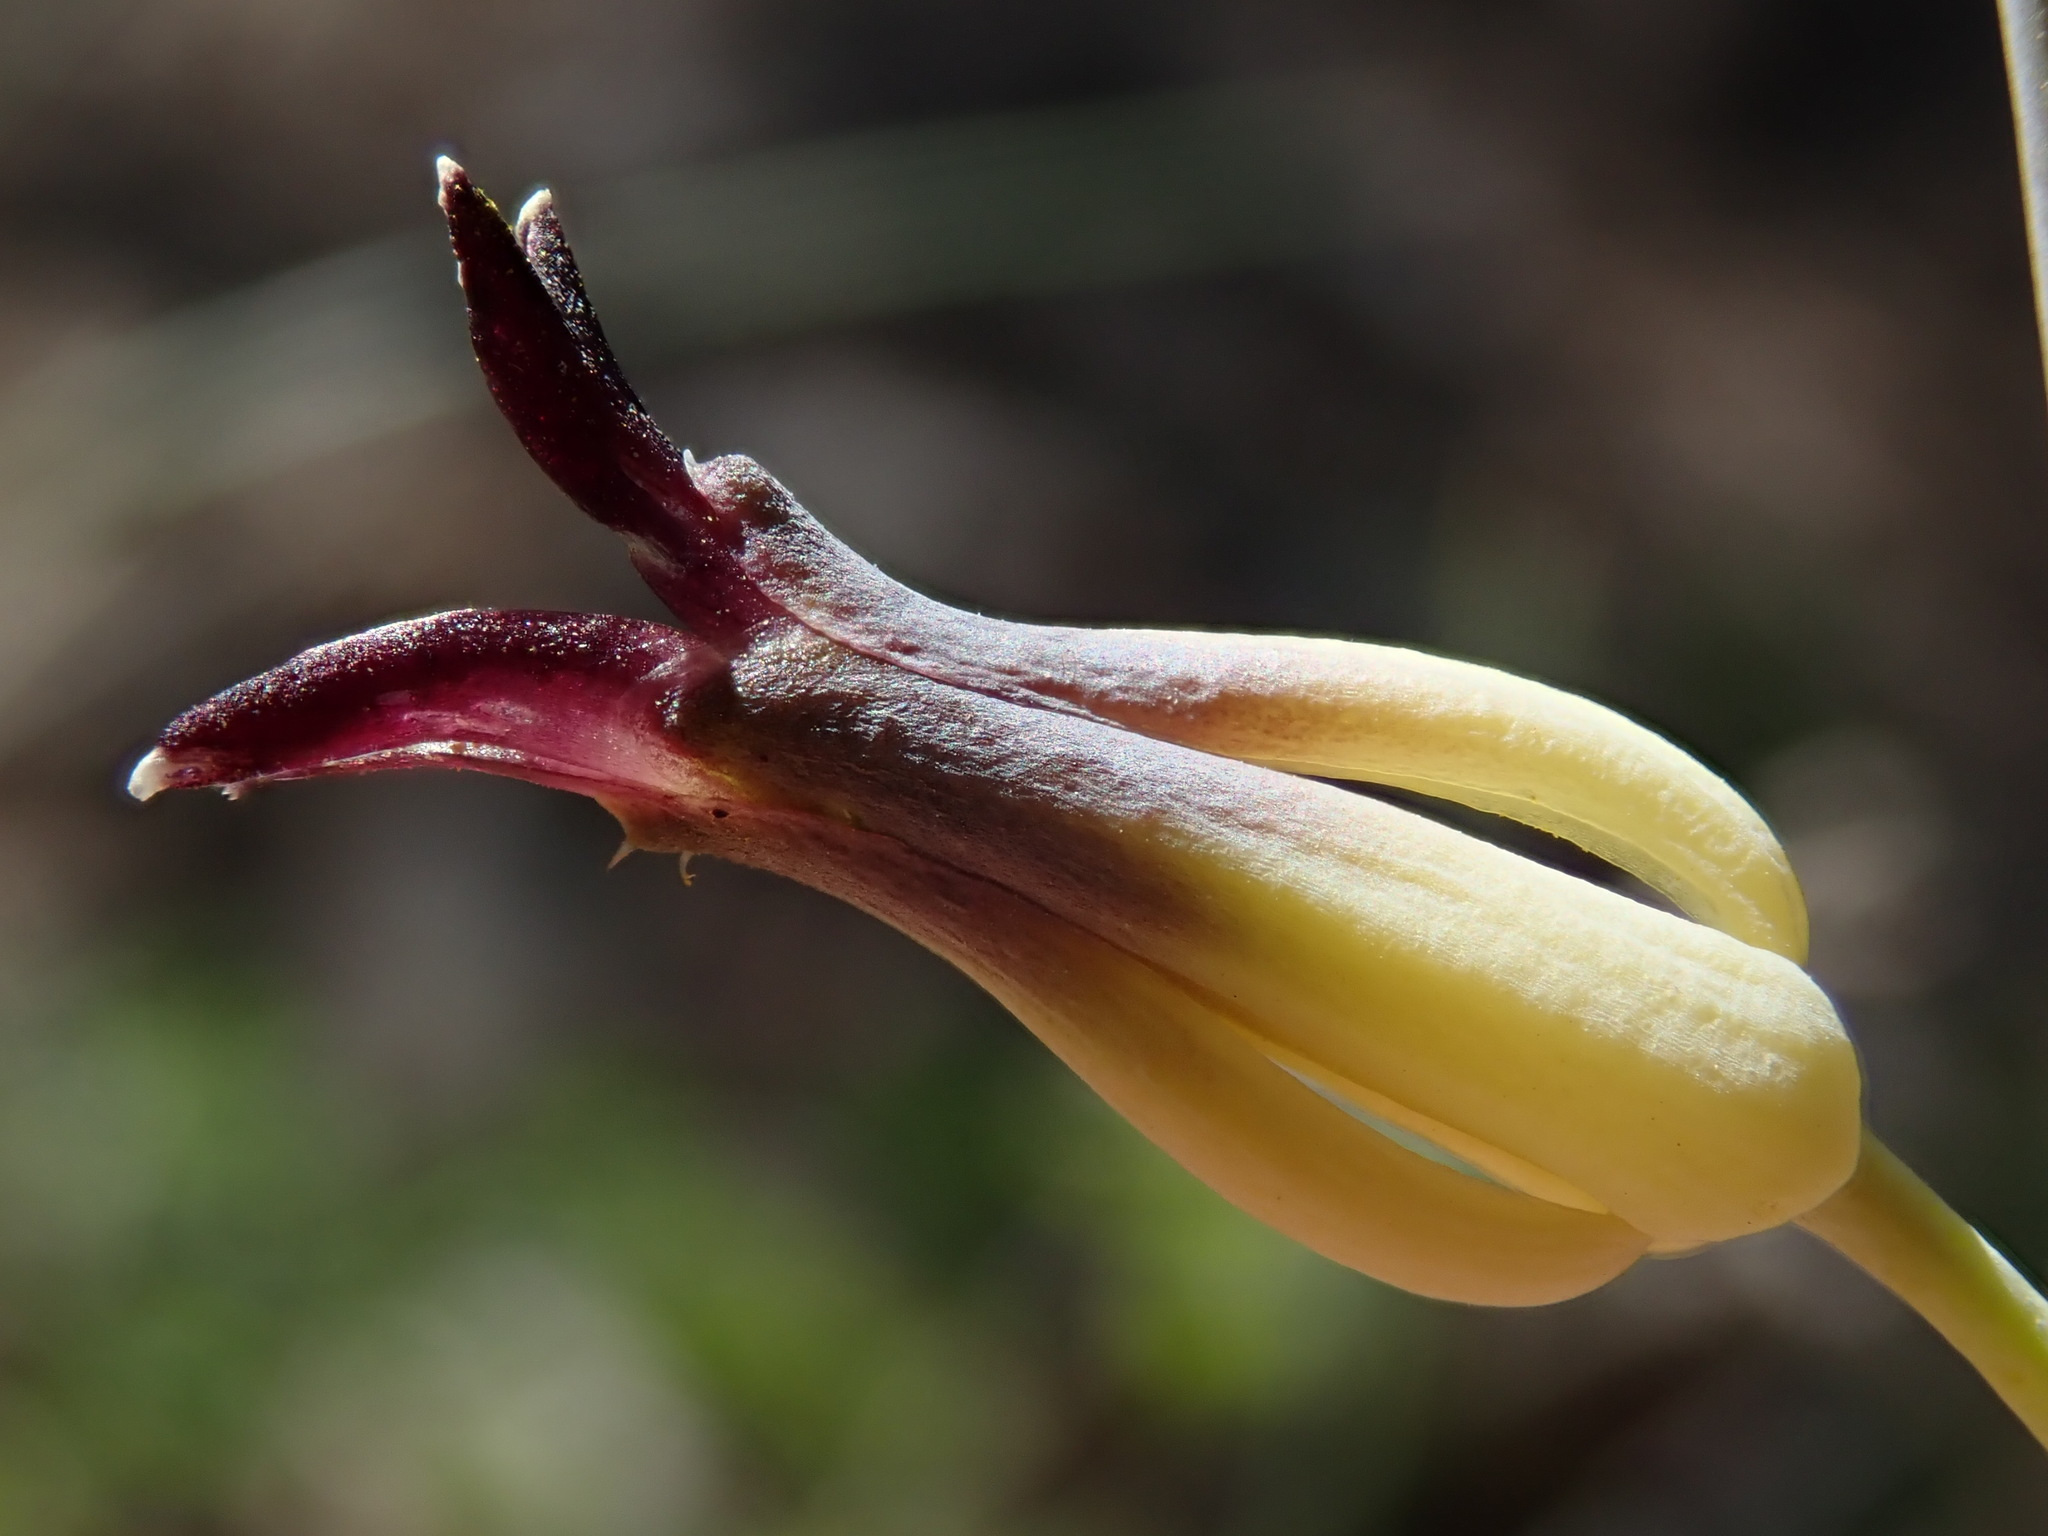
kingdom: Plantae
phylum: Tracheophyta
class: Magnoliopsida
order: Brassicales
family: Brassicaceae
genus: Streptanthus
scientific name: Streptanthus cordatus
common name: Heart-leaf jewel-flower
